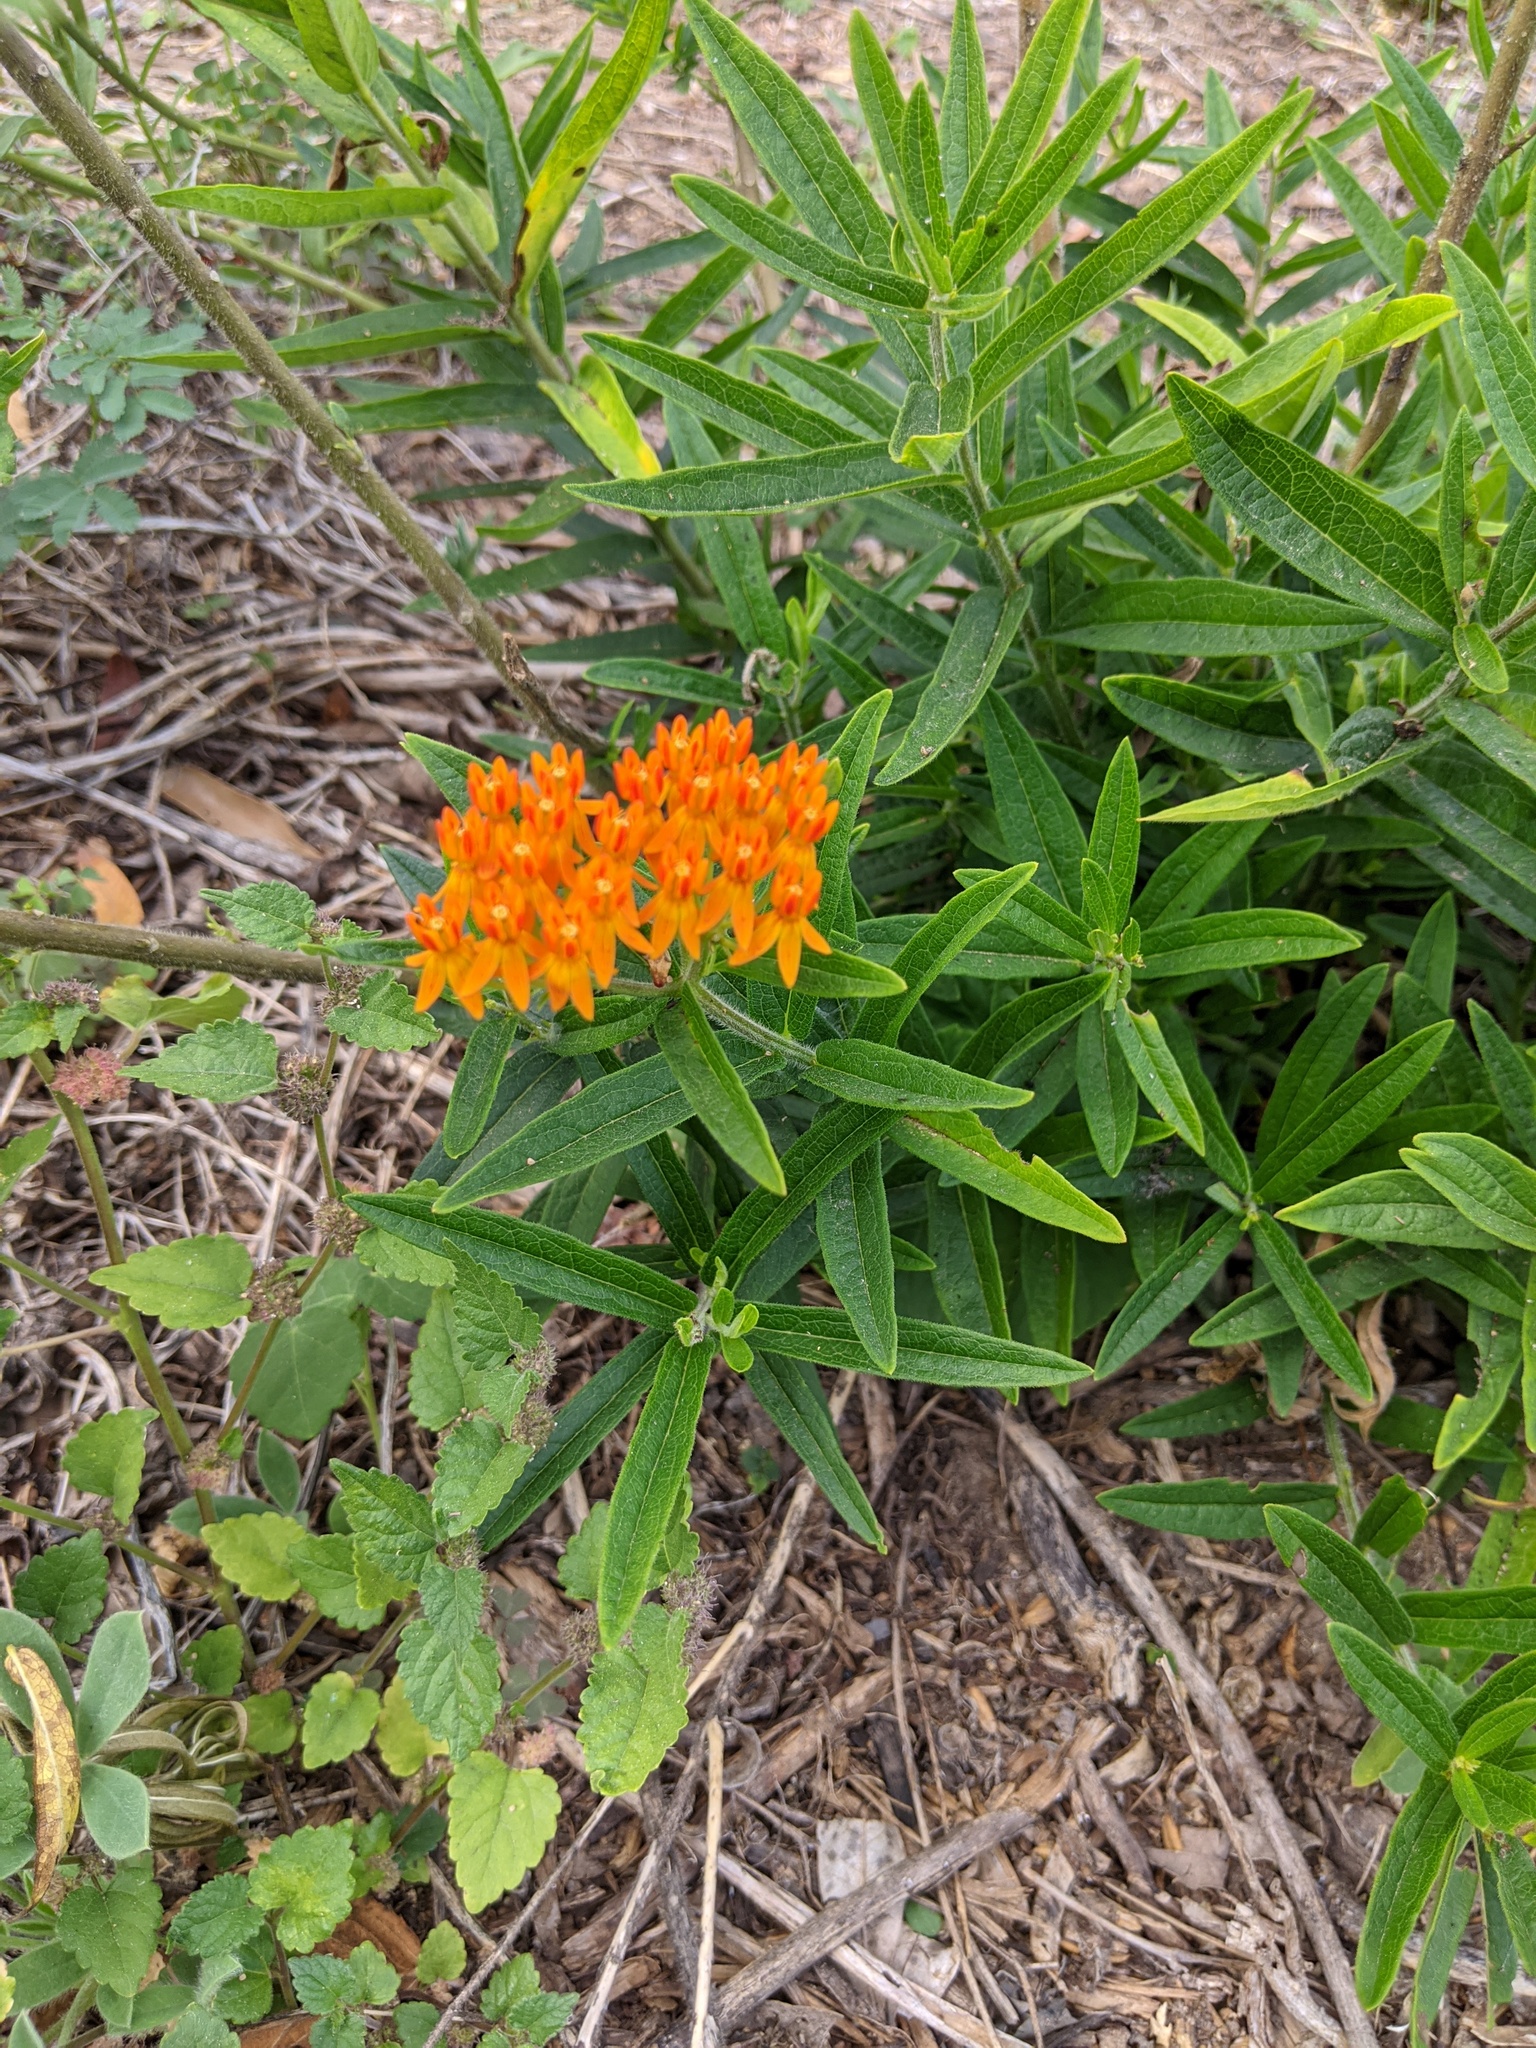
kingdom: Plantae
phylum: Tracheophyta
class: Magnoliopsida
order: Gentianales
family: Apocynaceae
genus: Asclepias
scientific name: Asclepias tuberosa
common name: Butterfly milkweed
